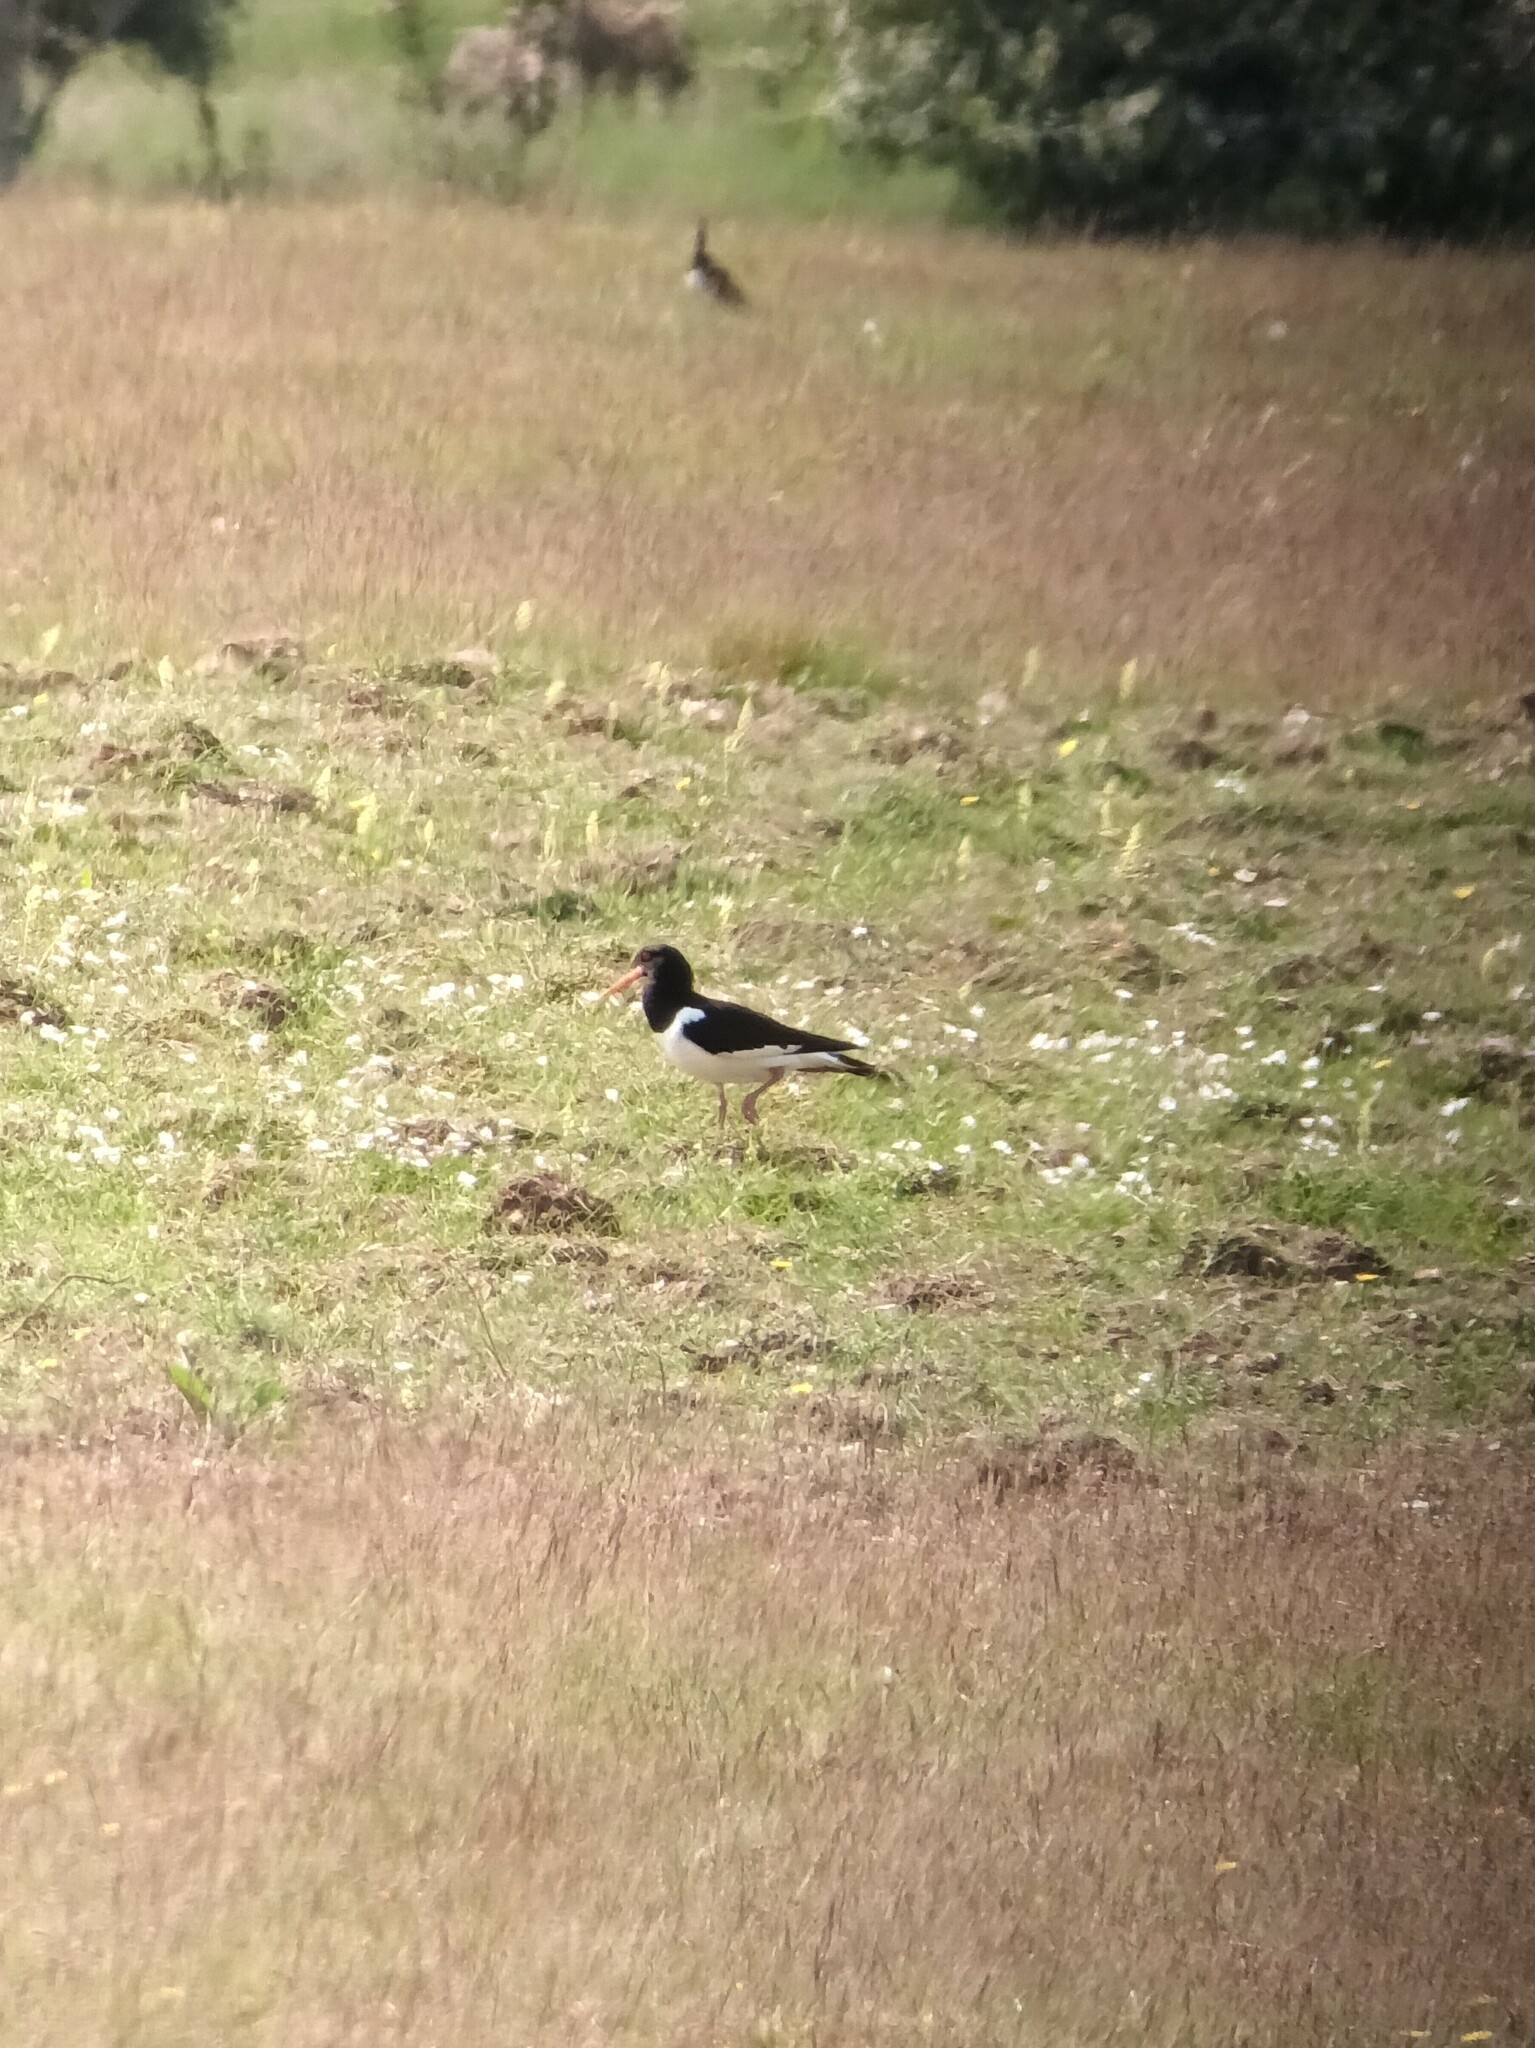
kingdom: Animalia
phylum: Chordata
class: Aves
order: Charadriiformes
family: Haematopodidae
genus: Haematopus
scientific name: Haematopus ostralegus
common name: Eurasian oystercatcher
